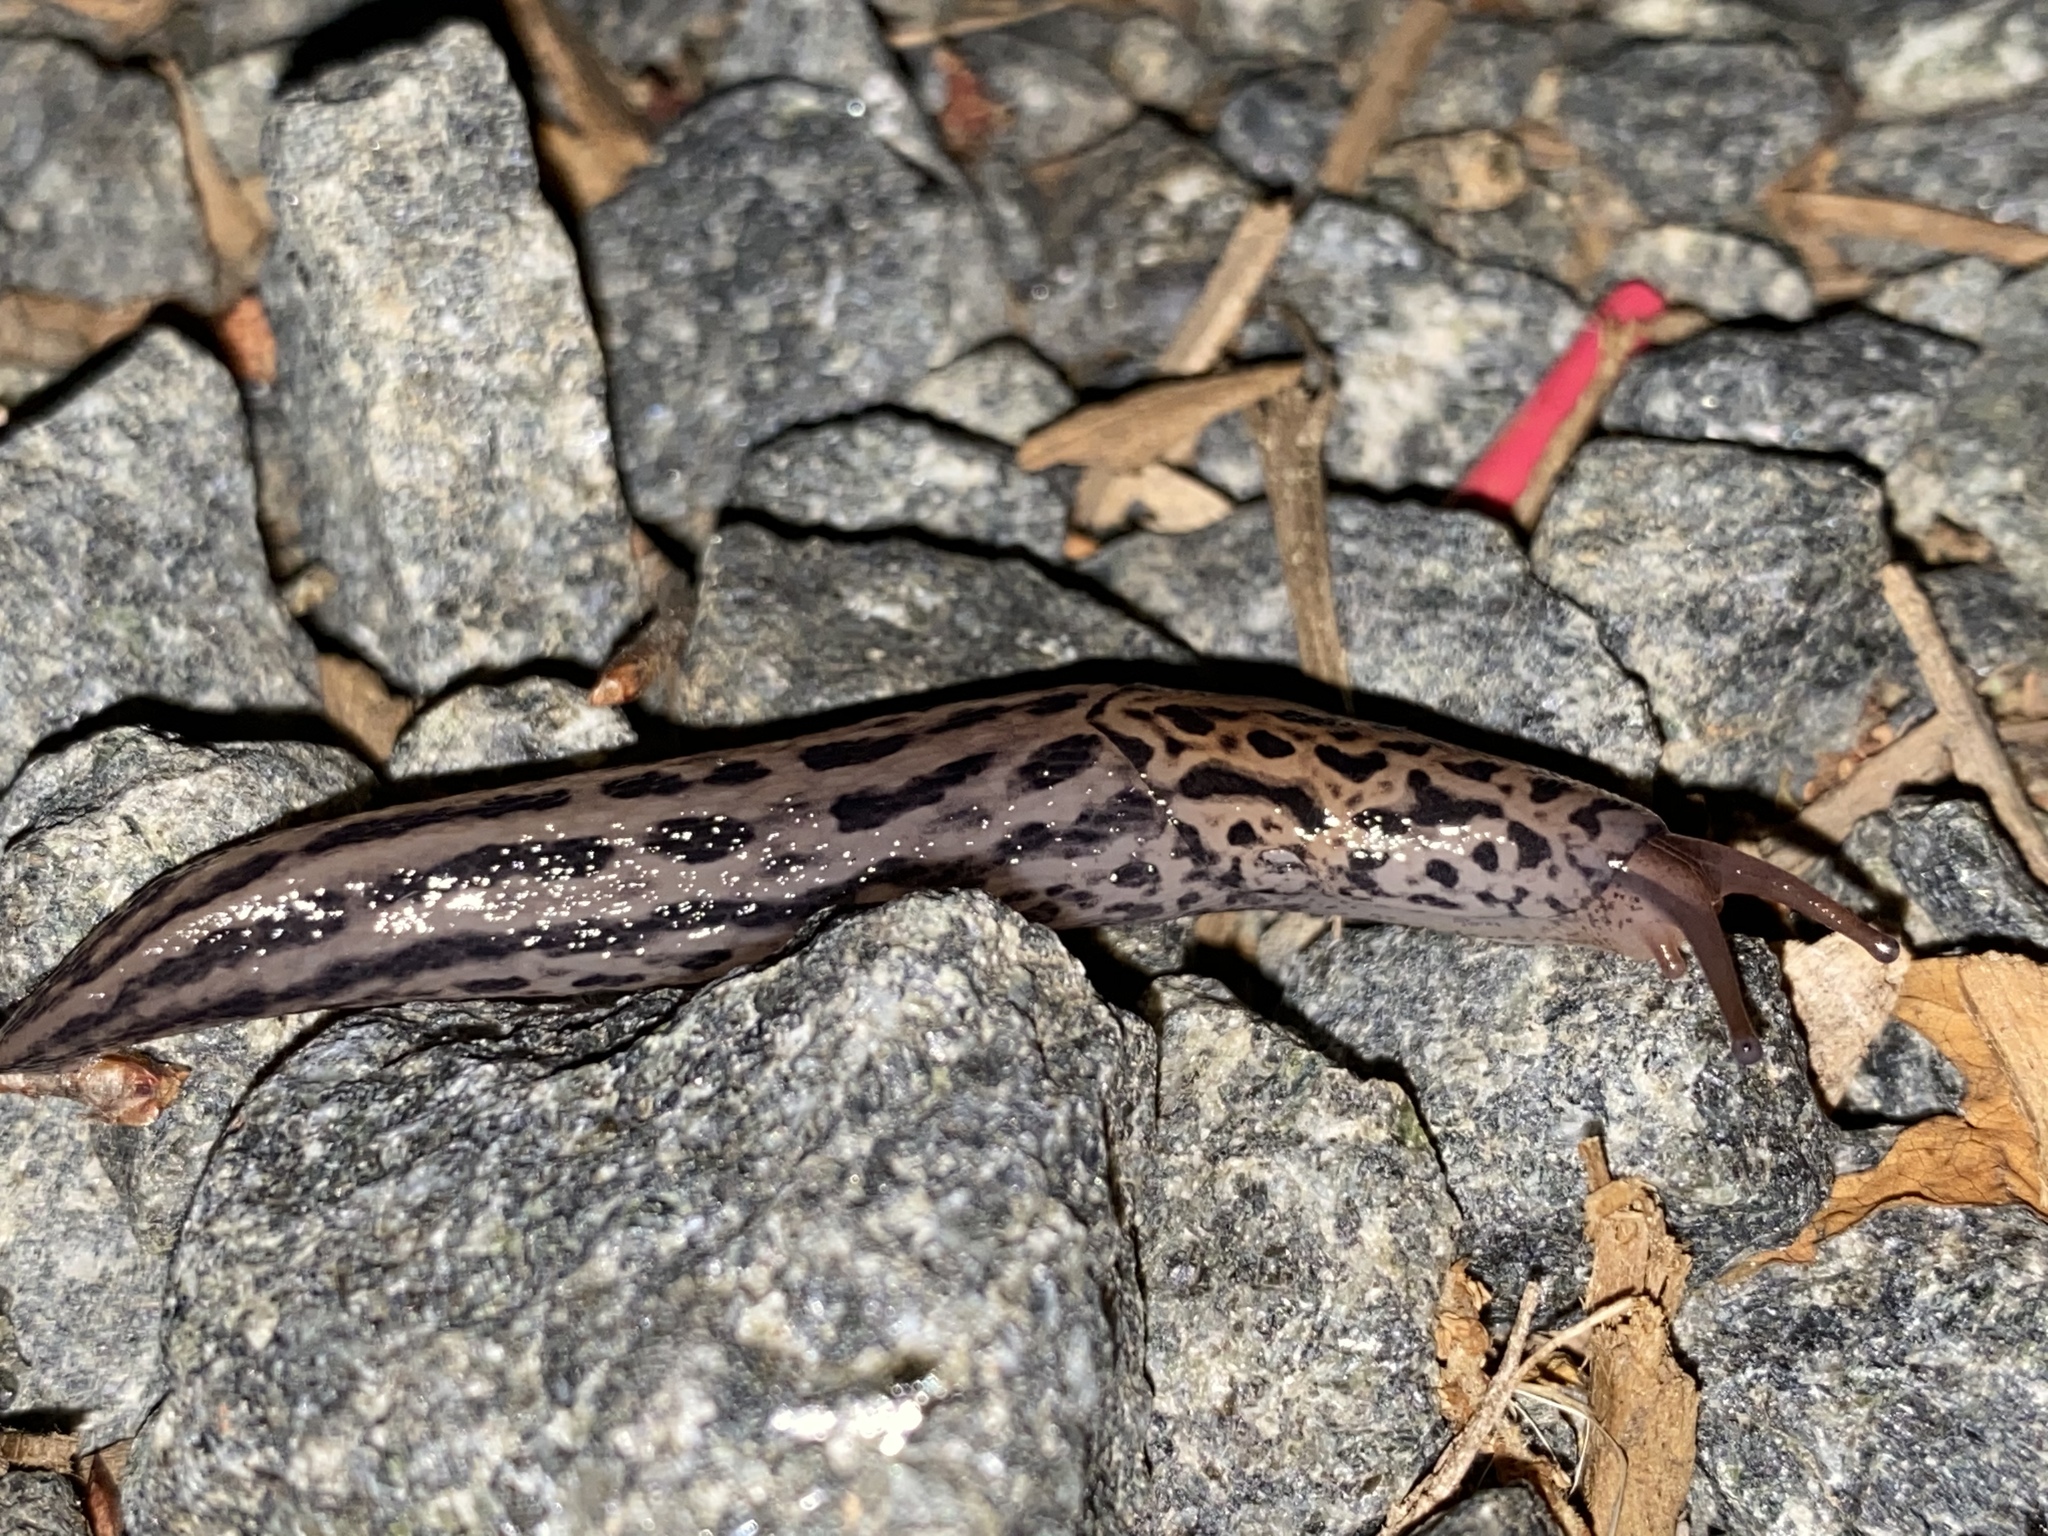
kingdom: Animalia
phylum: Mollusca
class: Gastropoda
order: Stylommatophora
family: Limacidae
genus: Limax
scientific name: Limax maximus
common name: Great grey slug
